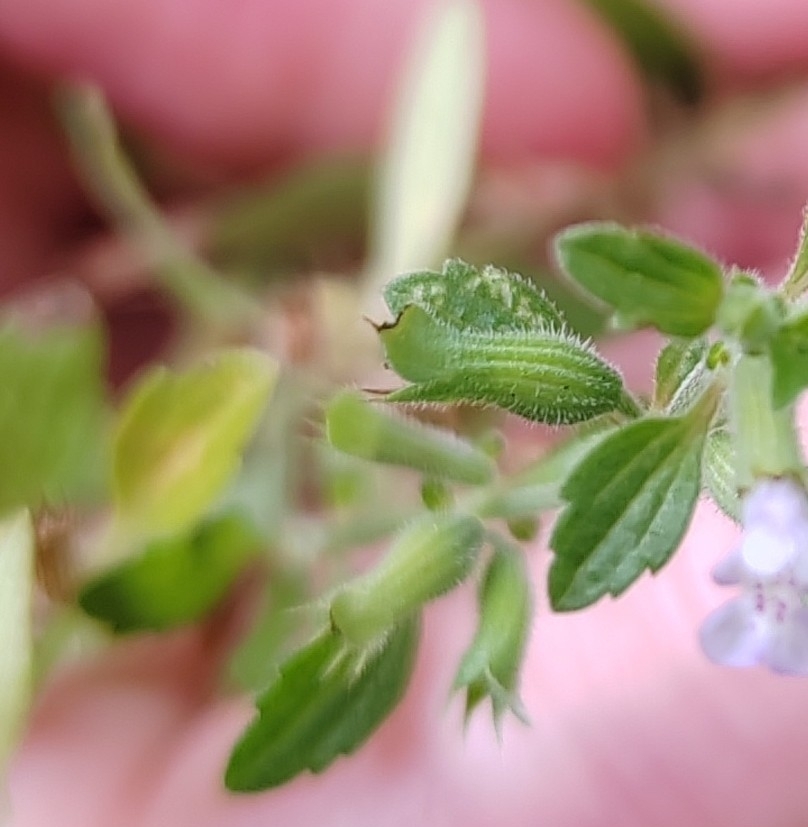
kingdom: Plantae
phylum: Tracheophyta
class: Magnoliopsida
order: Lamiales
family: Lamiaceae
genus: Dracocephalum
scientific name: Dracocephalum thymiflorum
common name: Thymeleaf dragonhead
